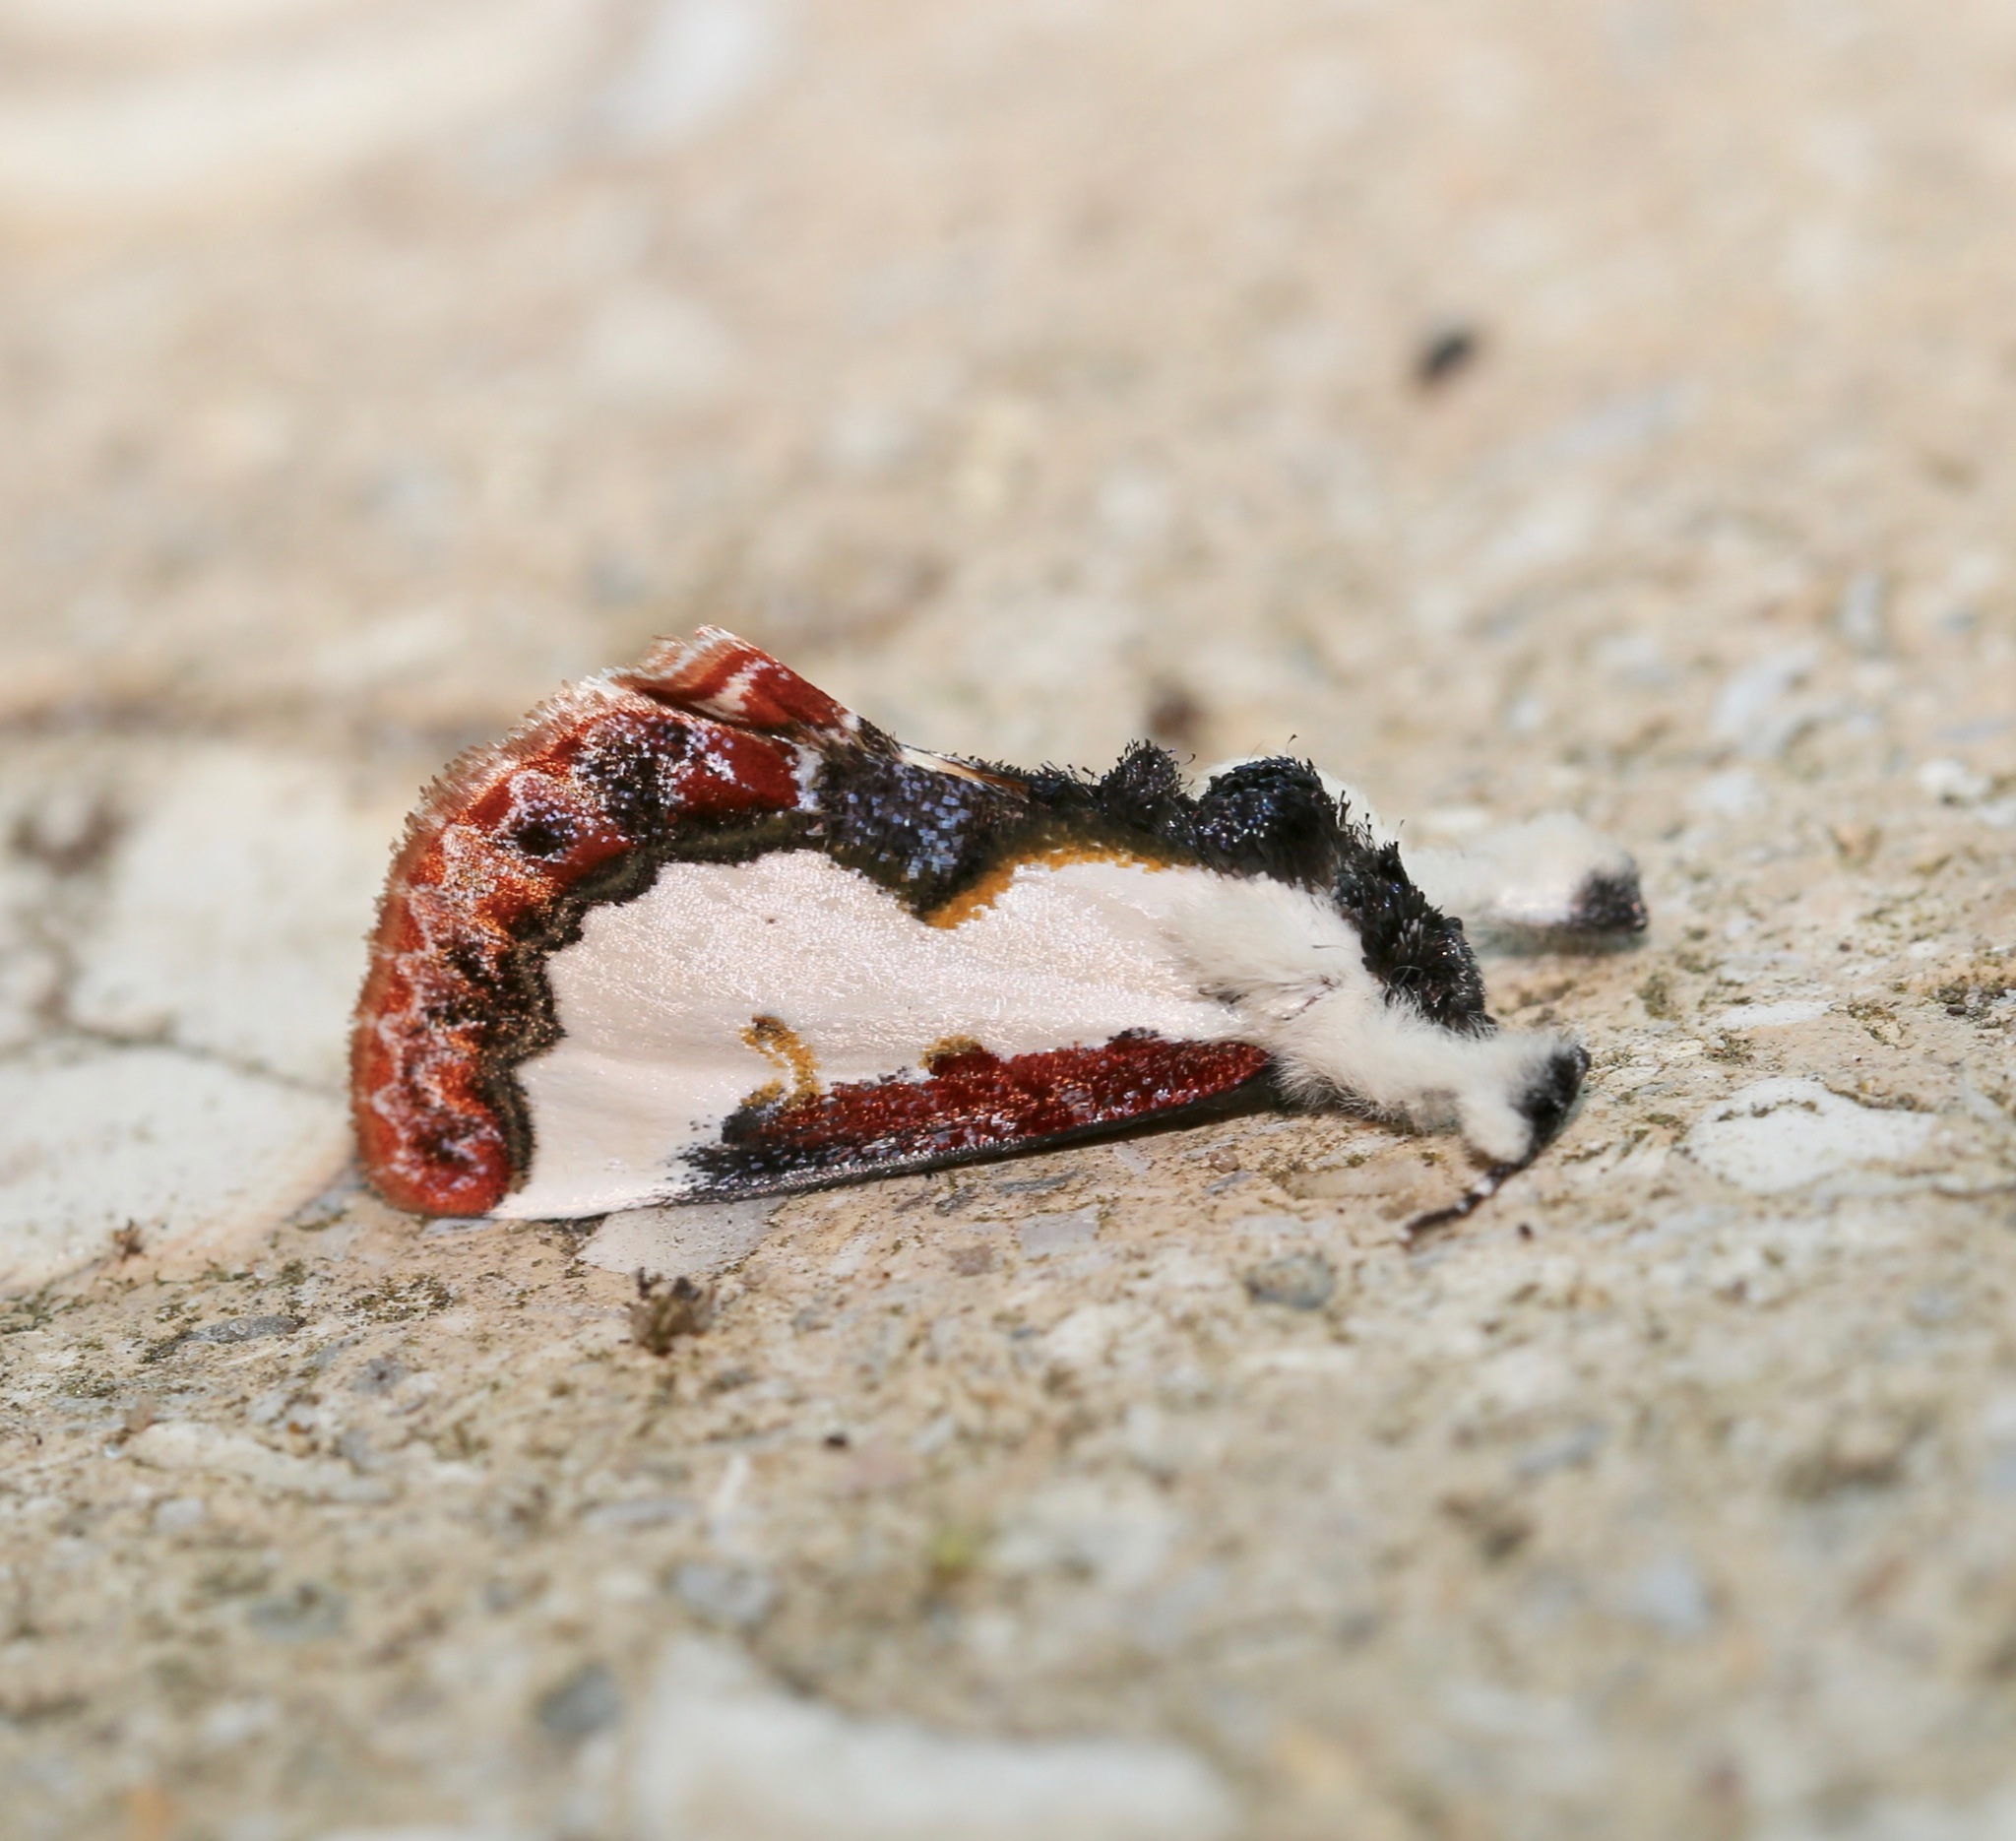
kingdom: Animalia
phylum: Arthropoda
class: Insecta
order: Lepidoptera
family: Noctuidae
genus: Eudryas
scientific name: Eudryas unio
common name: Pearly wood-nymph
